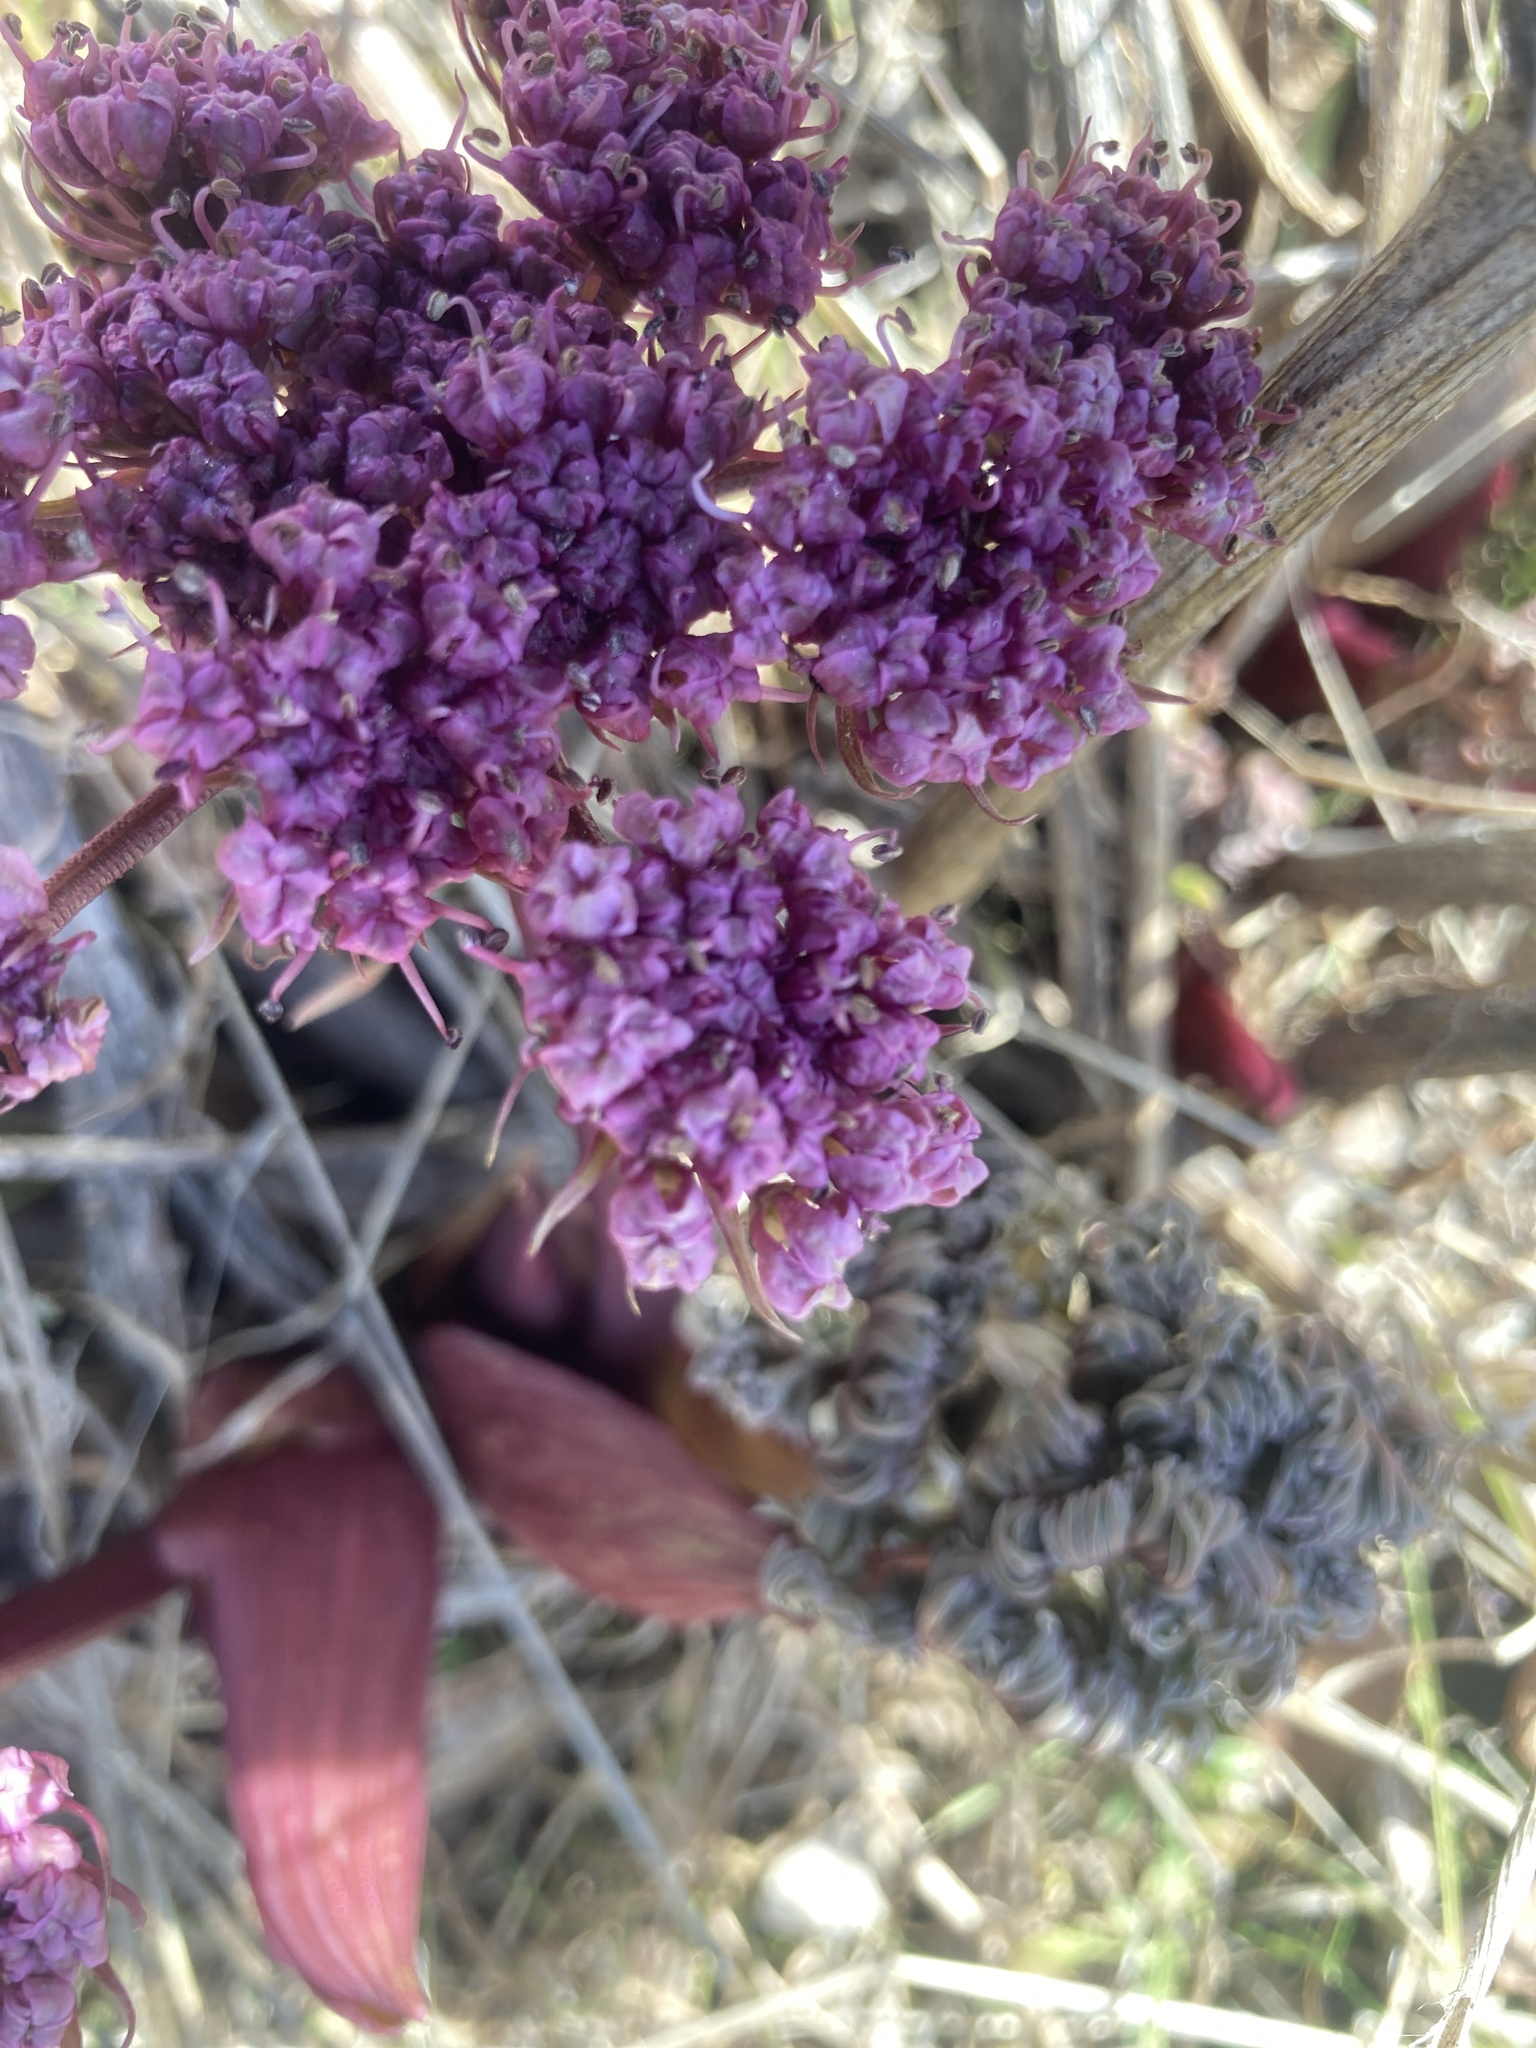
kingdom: Plantae
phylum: Tracheophyta
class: Magnoliopsida
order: Apiales
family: Apiaceae
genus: Lomatium
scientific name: Lomatium columbianum
